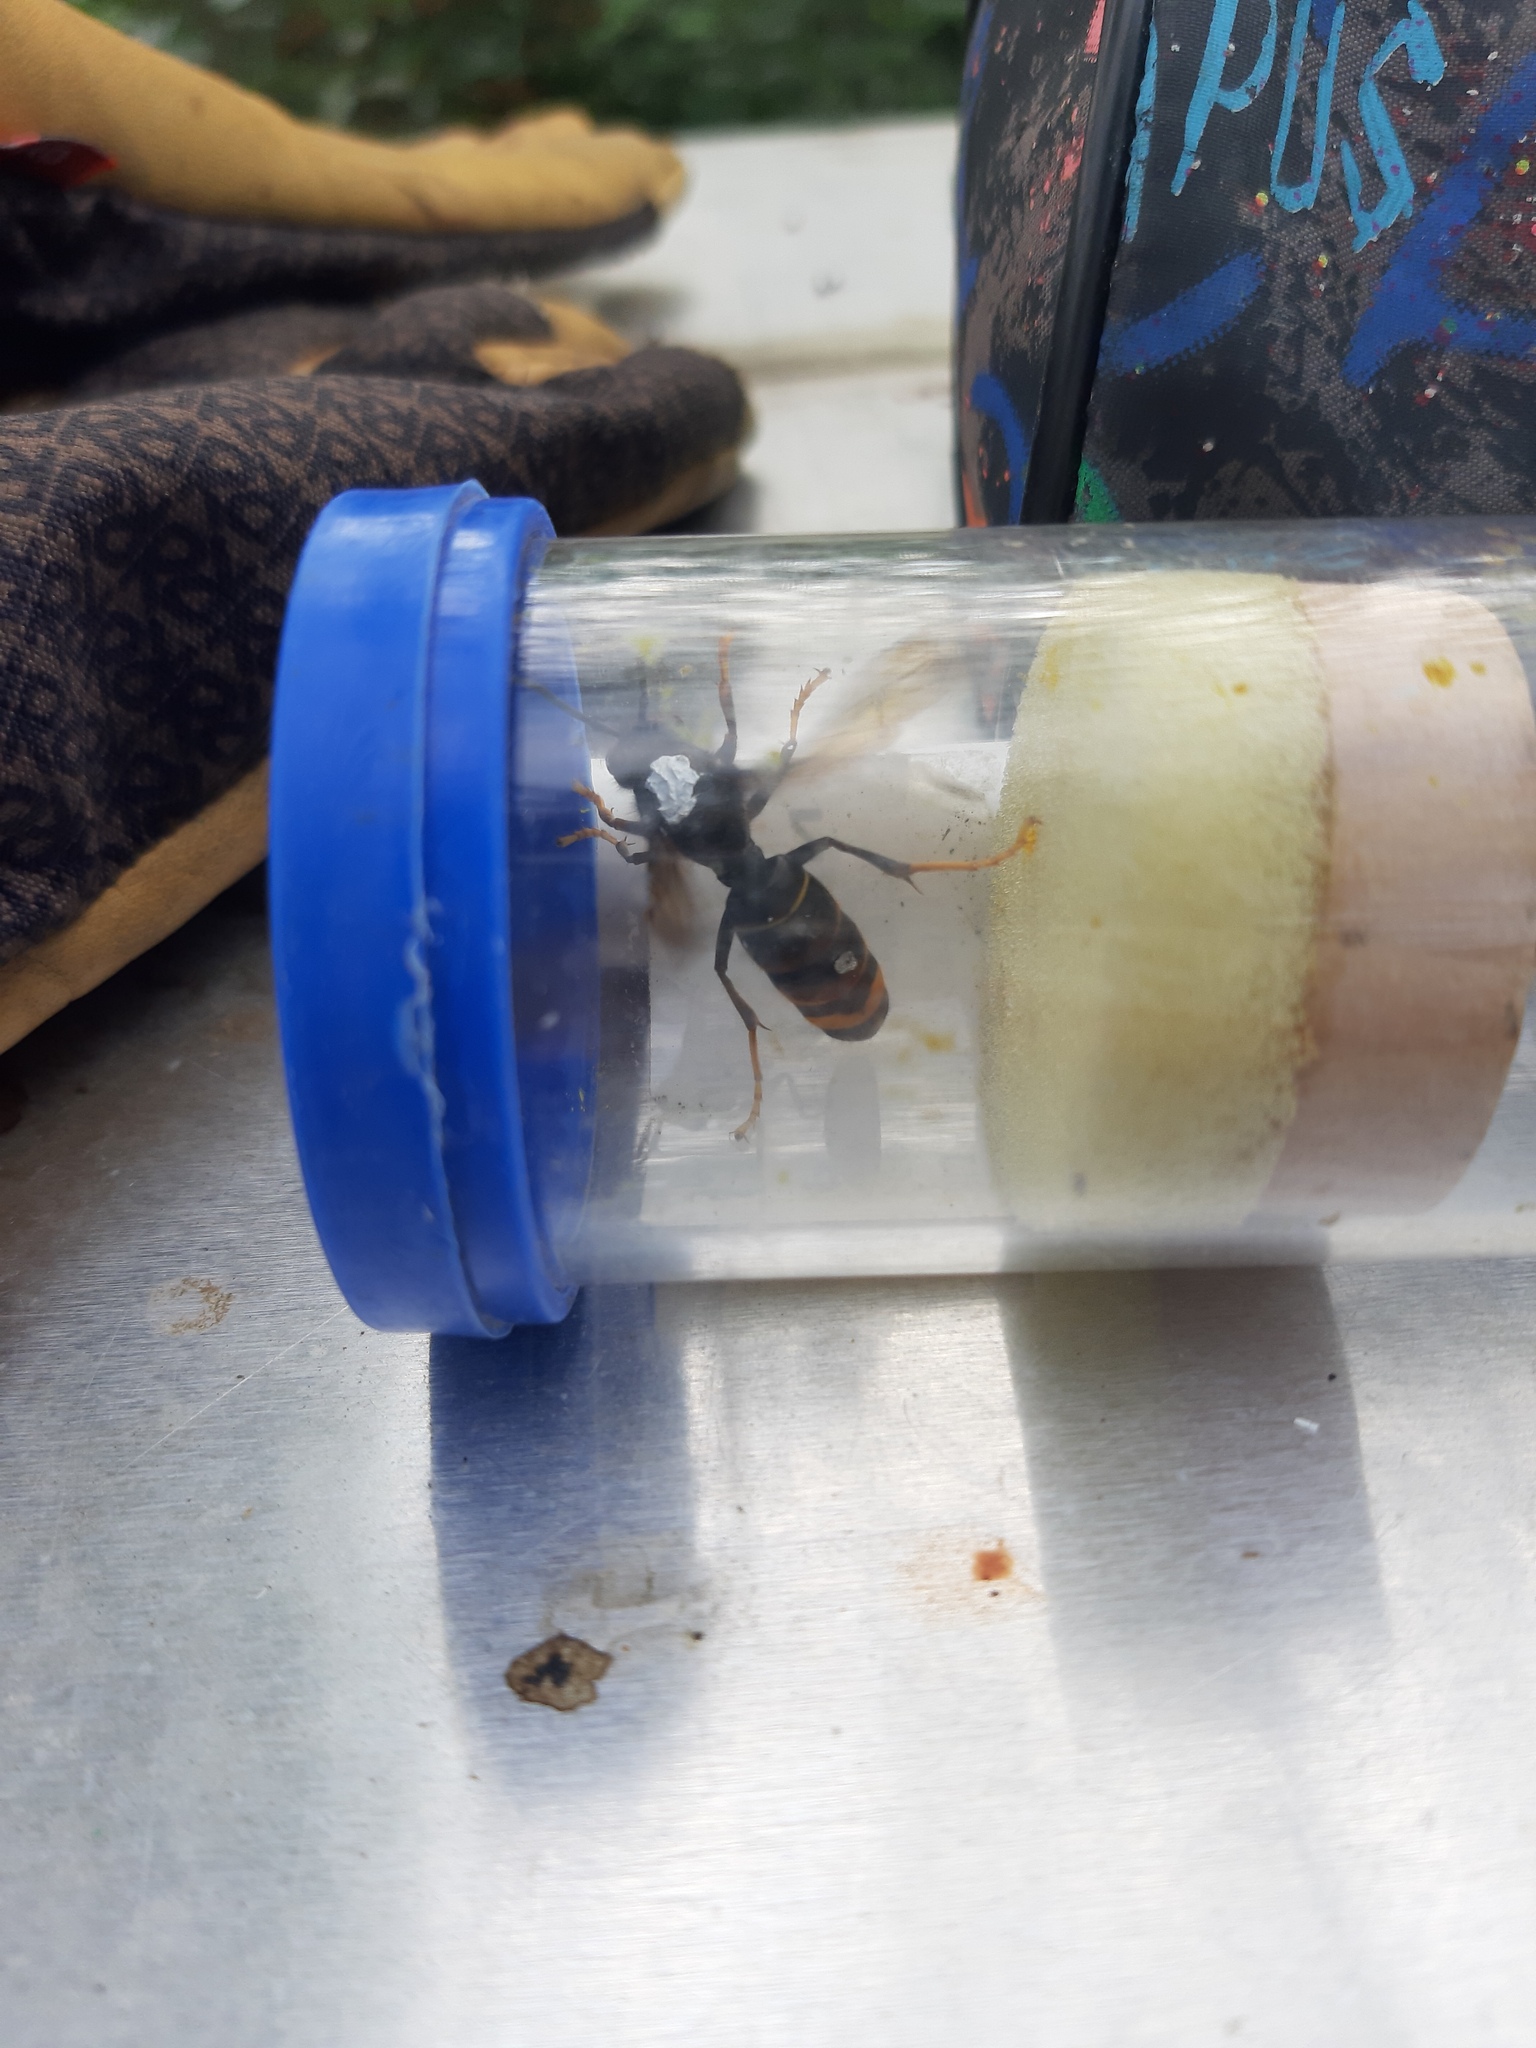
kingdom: Animalia
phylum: Arthropoda
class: Insecta
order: Hymenoptera
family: Vespidae
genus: Vespa
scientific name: Vespa velutina
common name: Asian hornet
